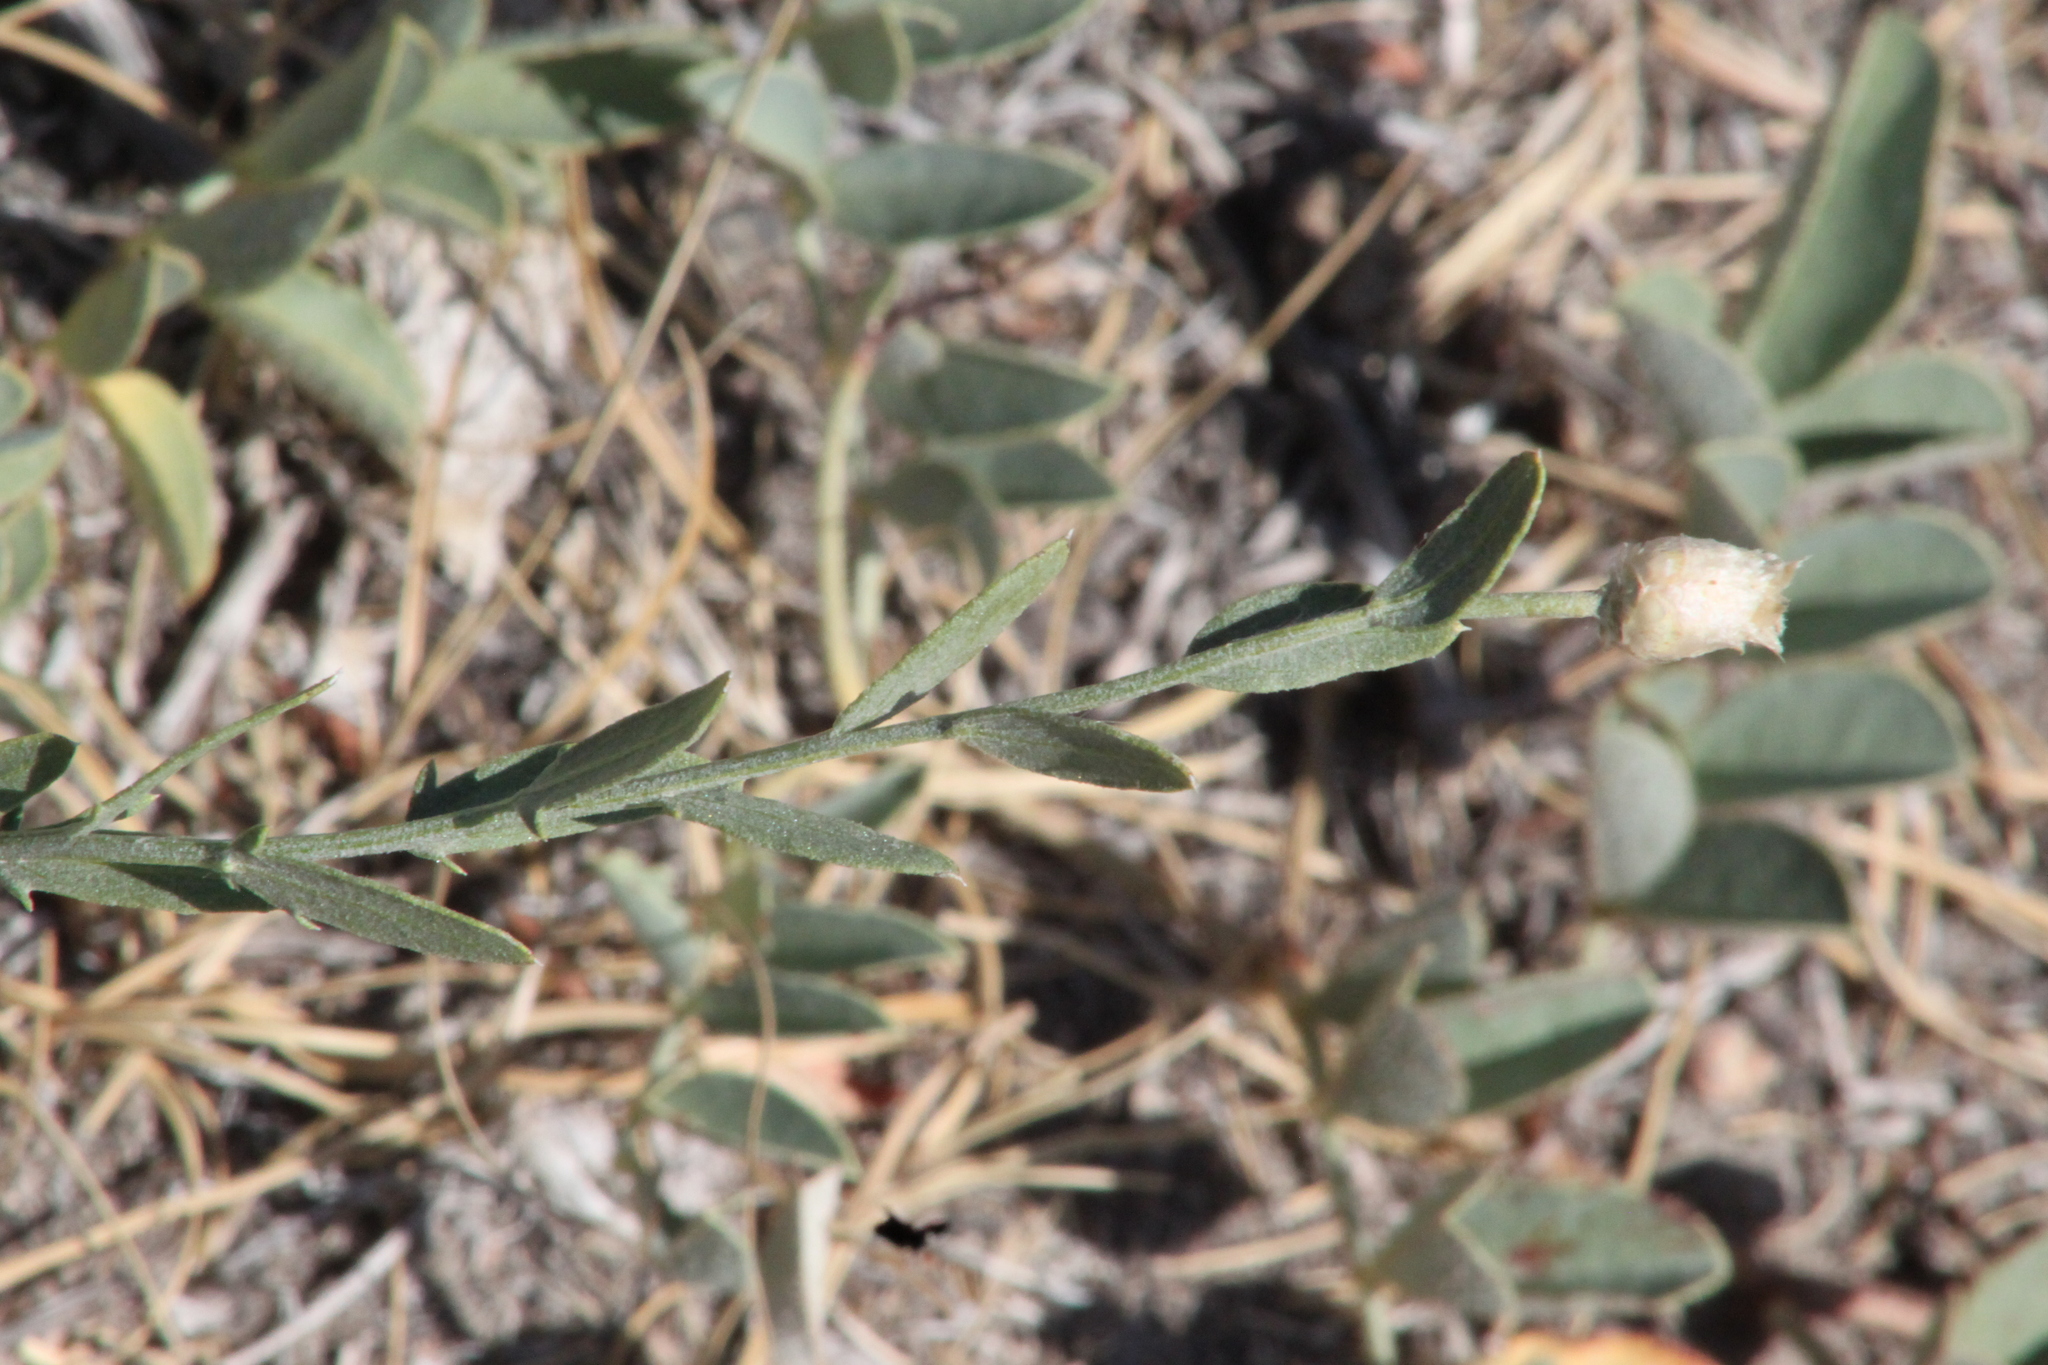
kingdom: Plantae
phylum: Tracheophyta
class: Magnoliopsida
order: Asterales
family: Asteraceae
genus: Leuzea
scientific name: Leuzea repens
